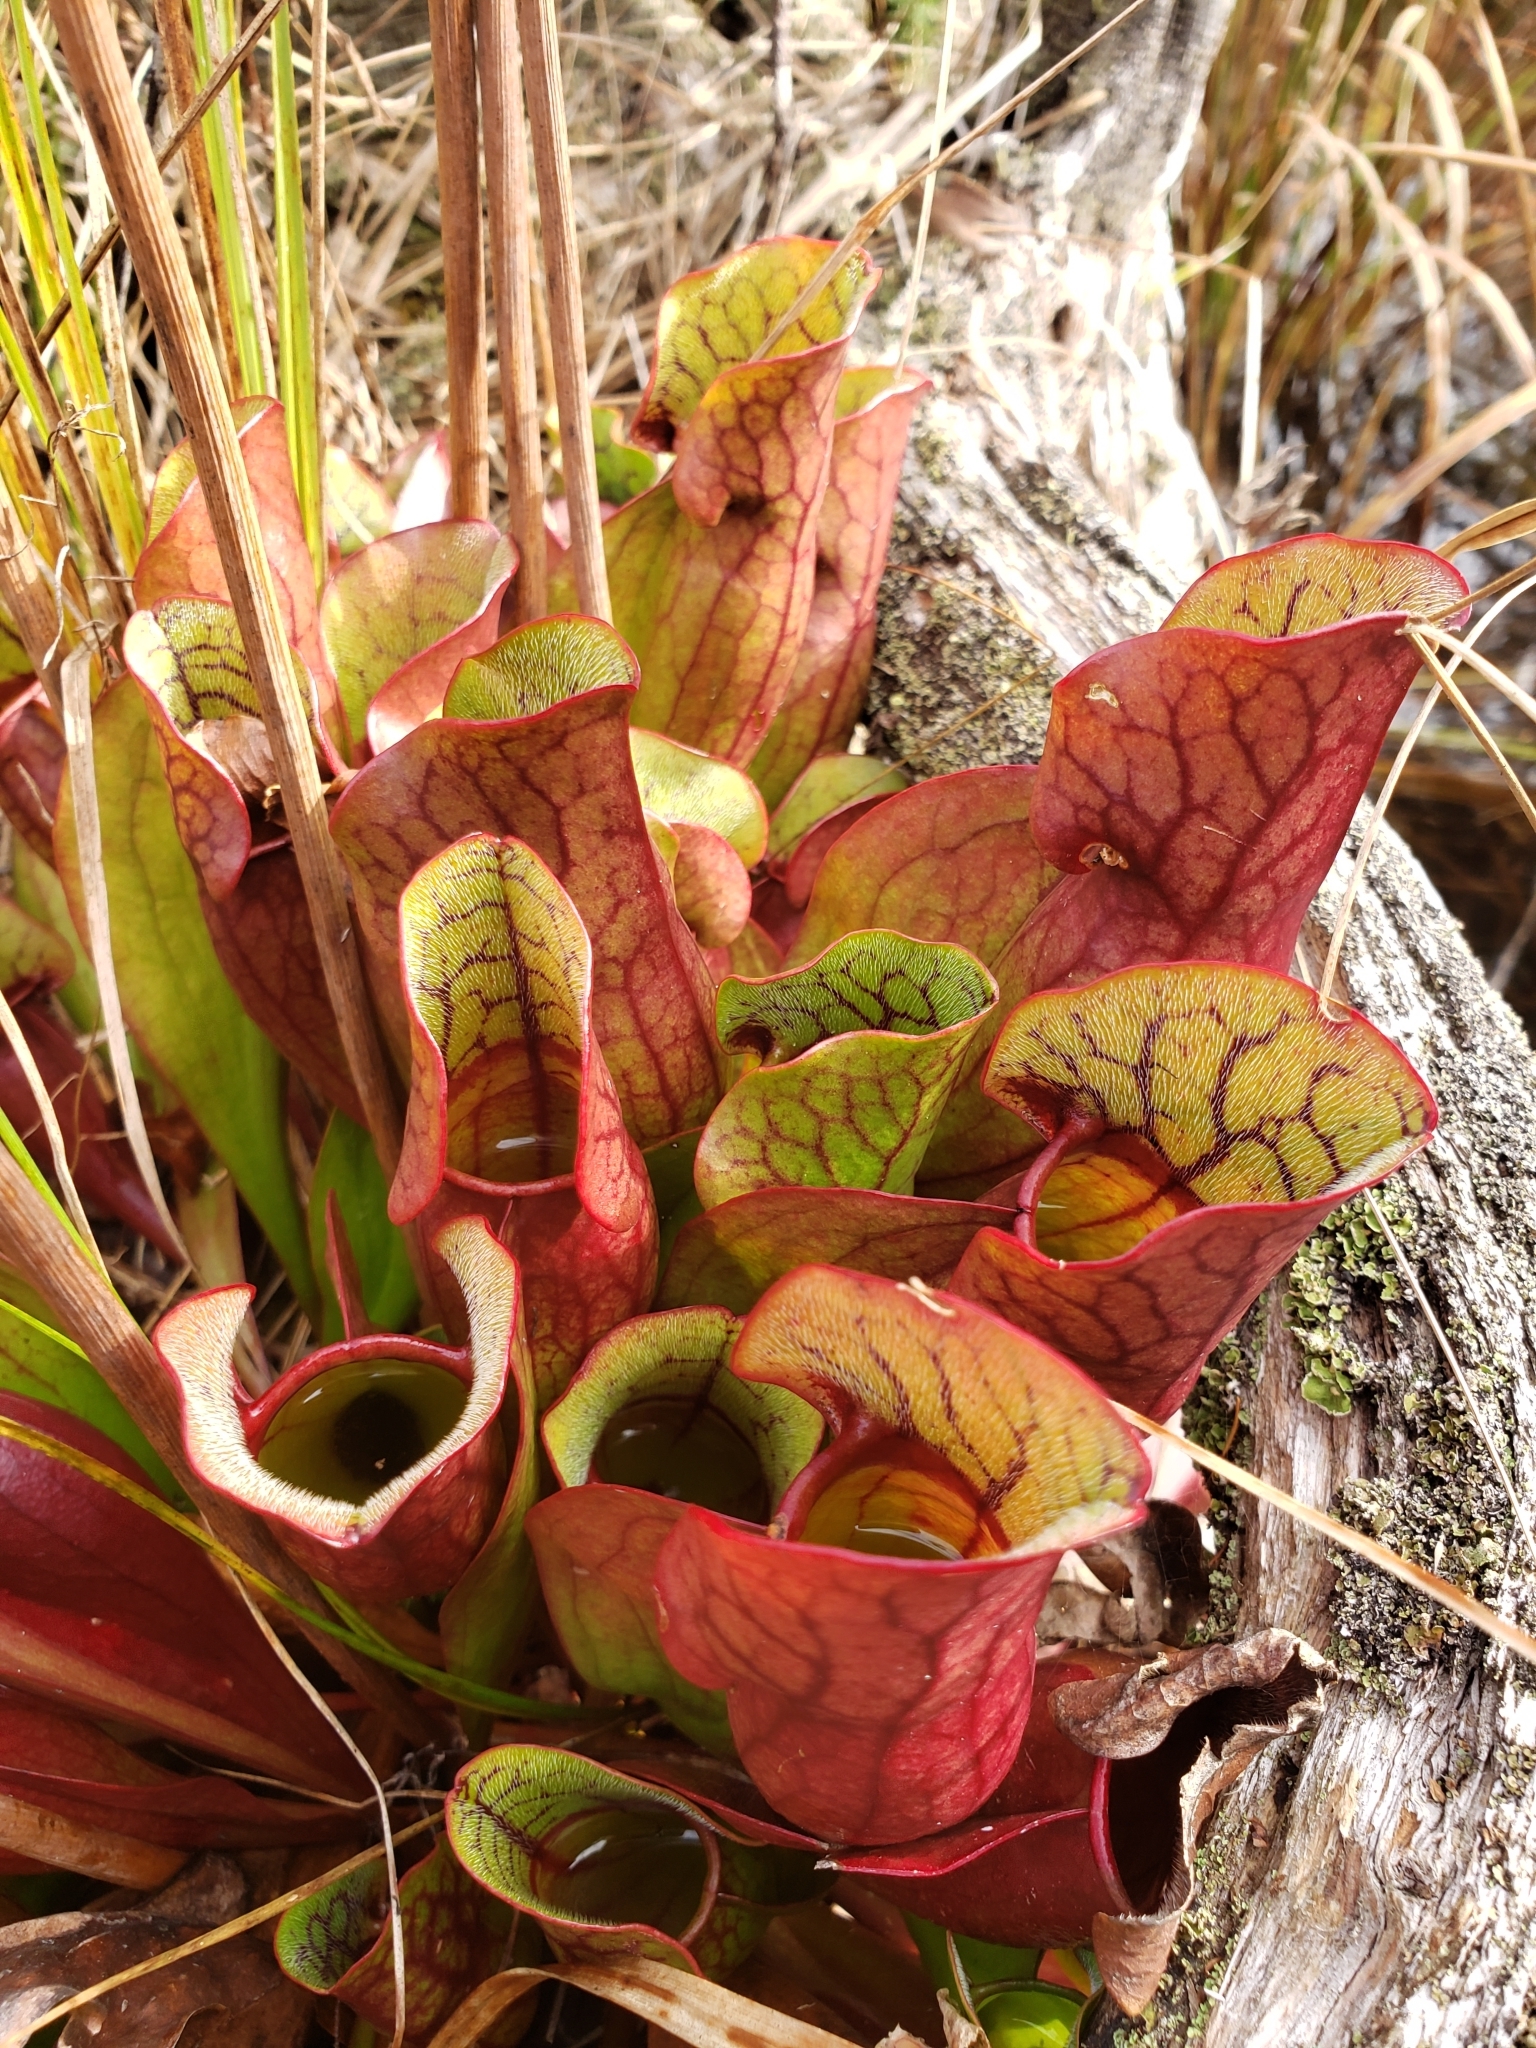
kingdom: Plantae
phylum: Tracheophyta
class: Magnoliopsida
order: Ericales
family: Sarraceniaceae
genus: Sarracenia
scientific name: Sarracenia purpurea
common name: Pitcherplant
